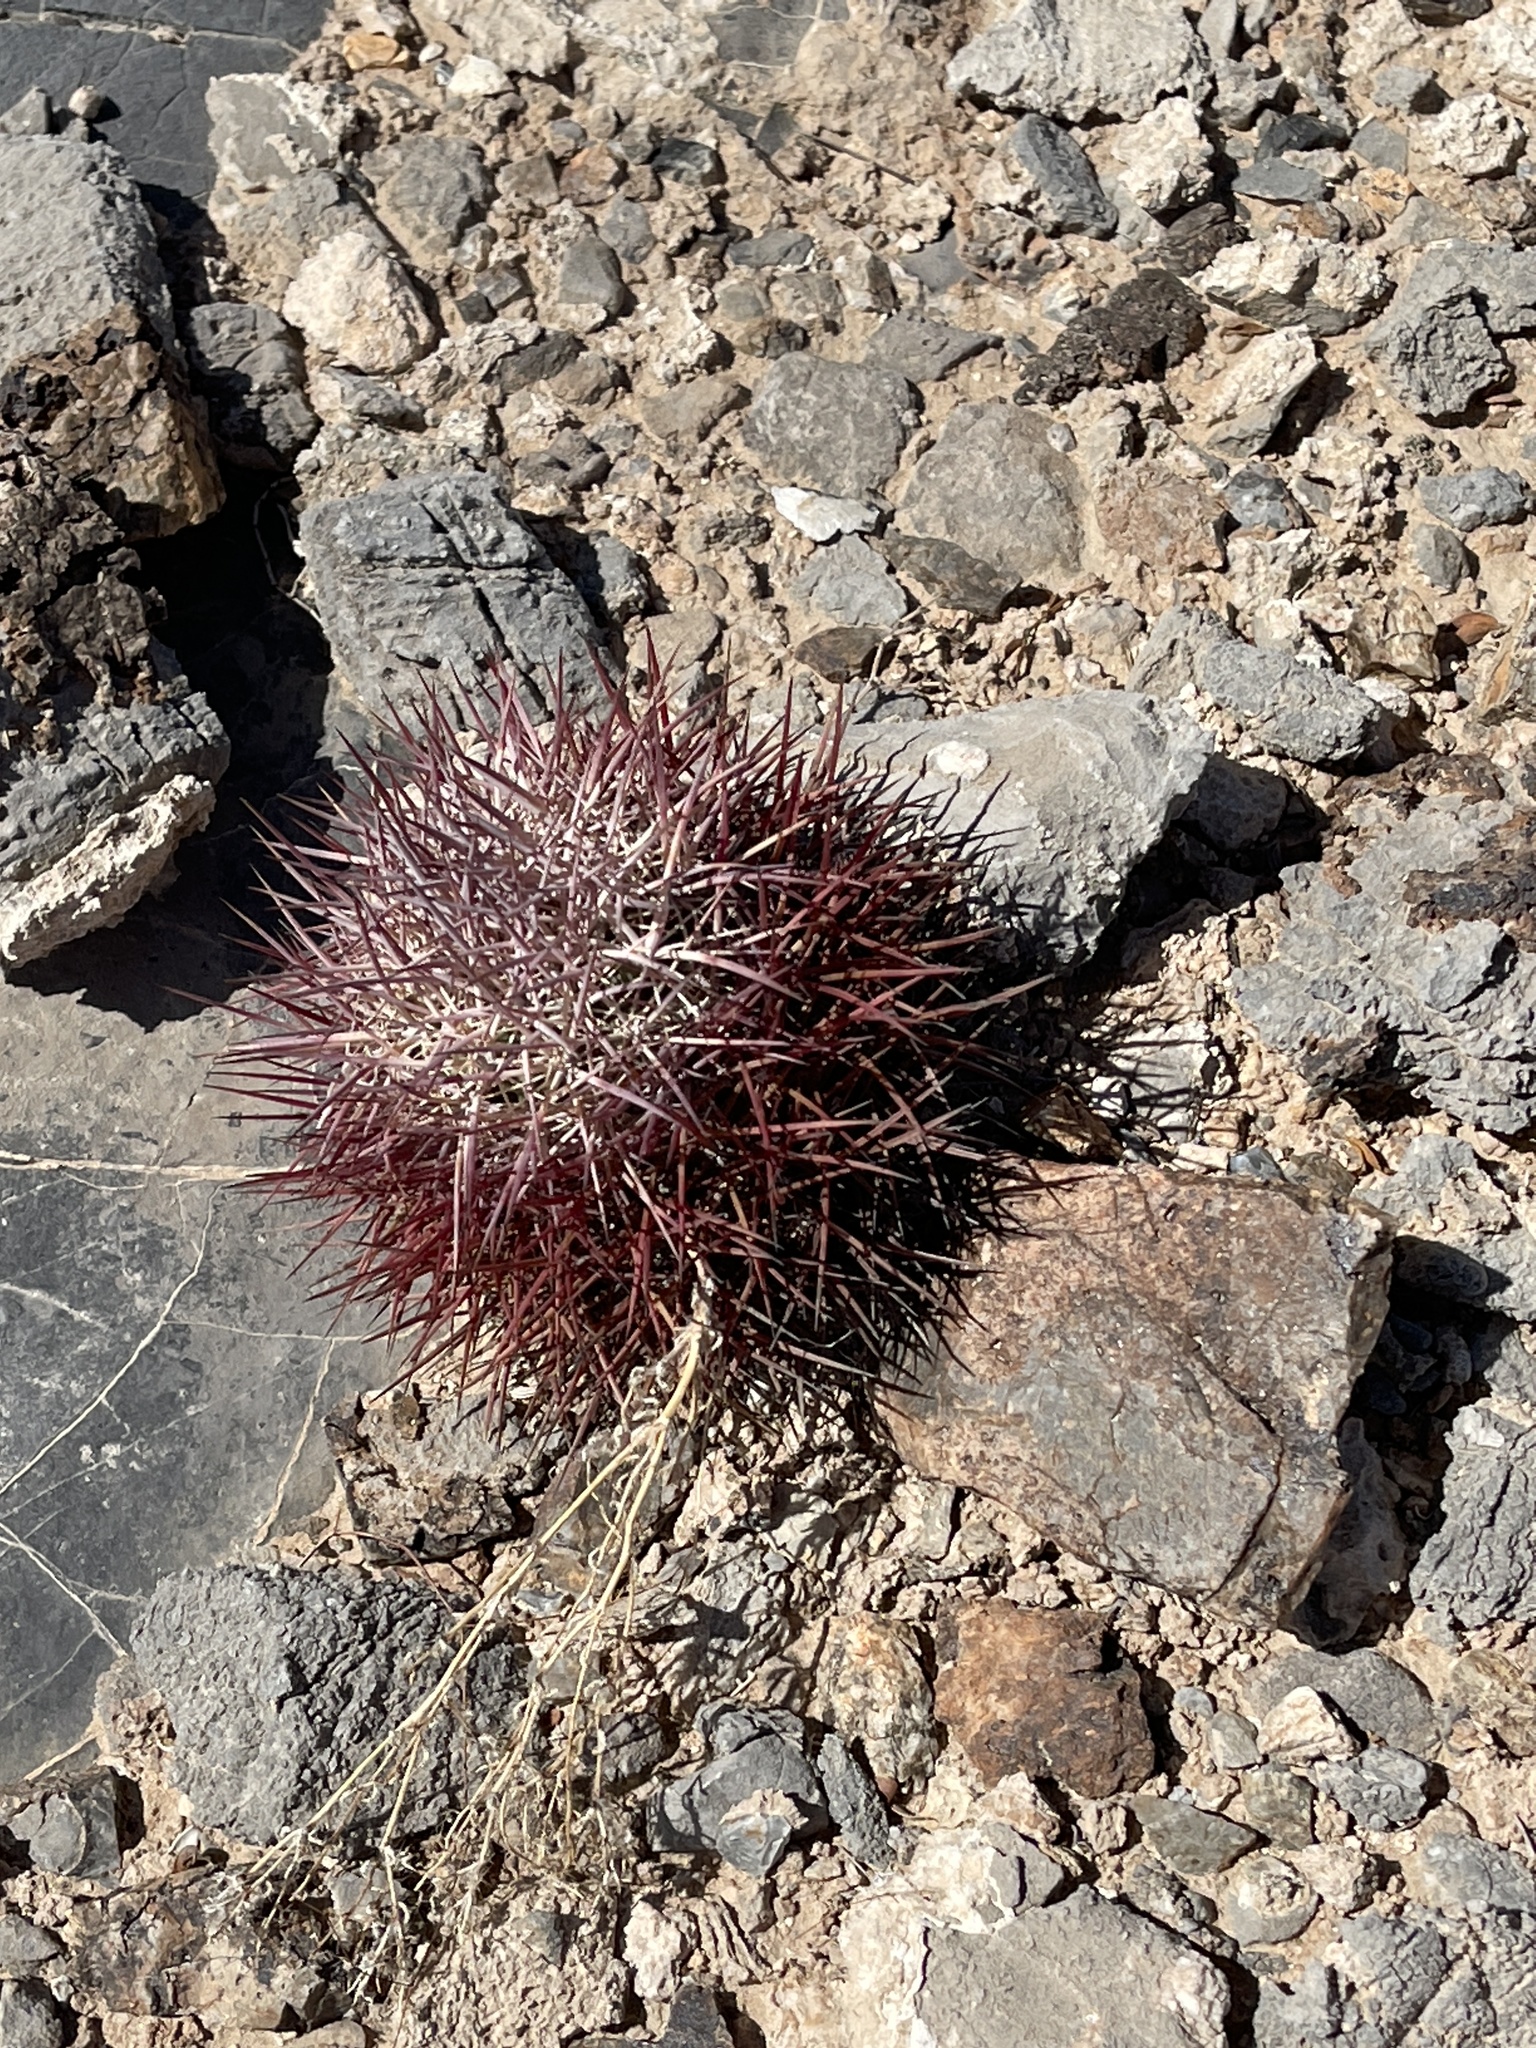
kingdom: Plantae
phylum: Tracheophyta
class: Magnoliopsida
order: Caryophyllales
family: Cactaceae
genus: Sclerocactus
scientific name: Sclerocactus johnsonii
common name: Eight-spine fishhook cactus
